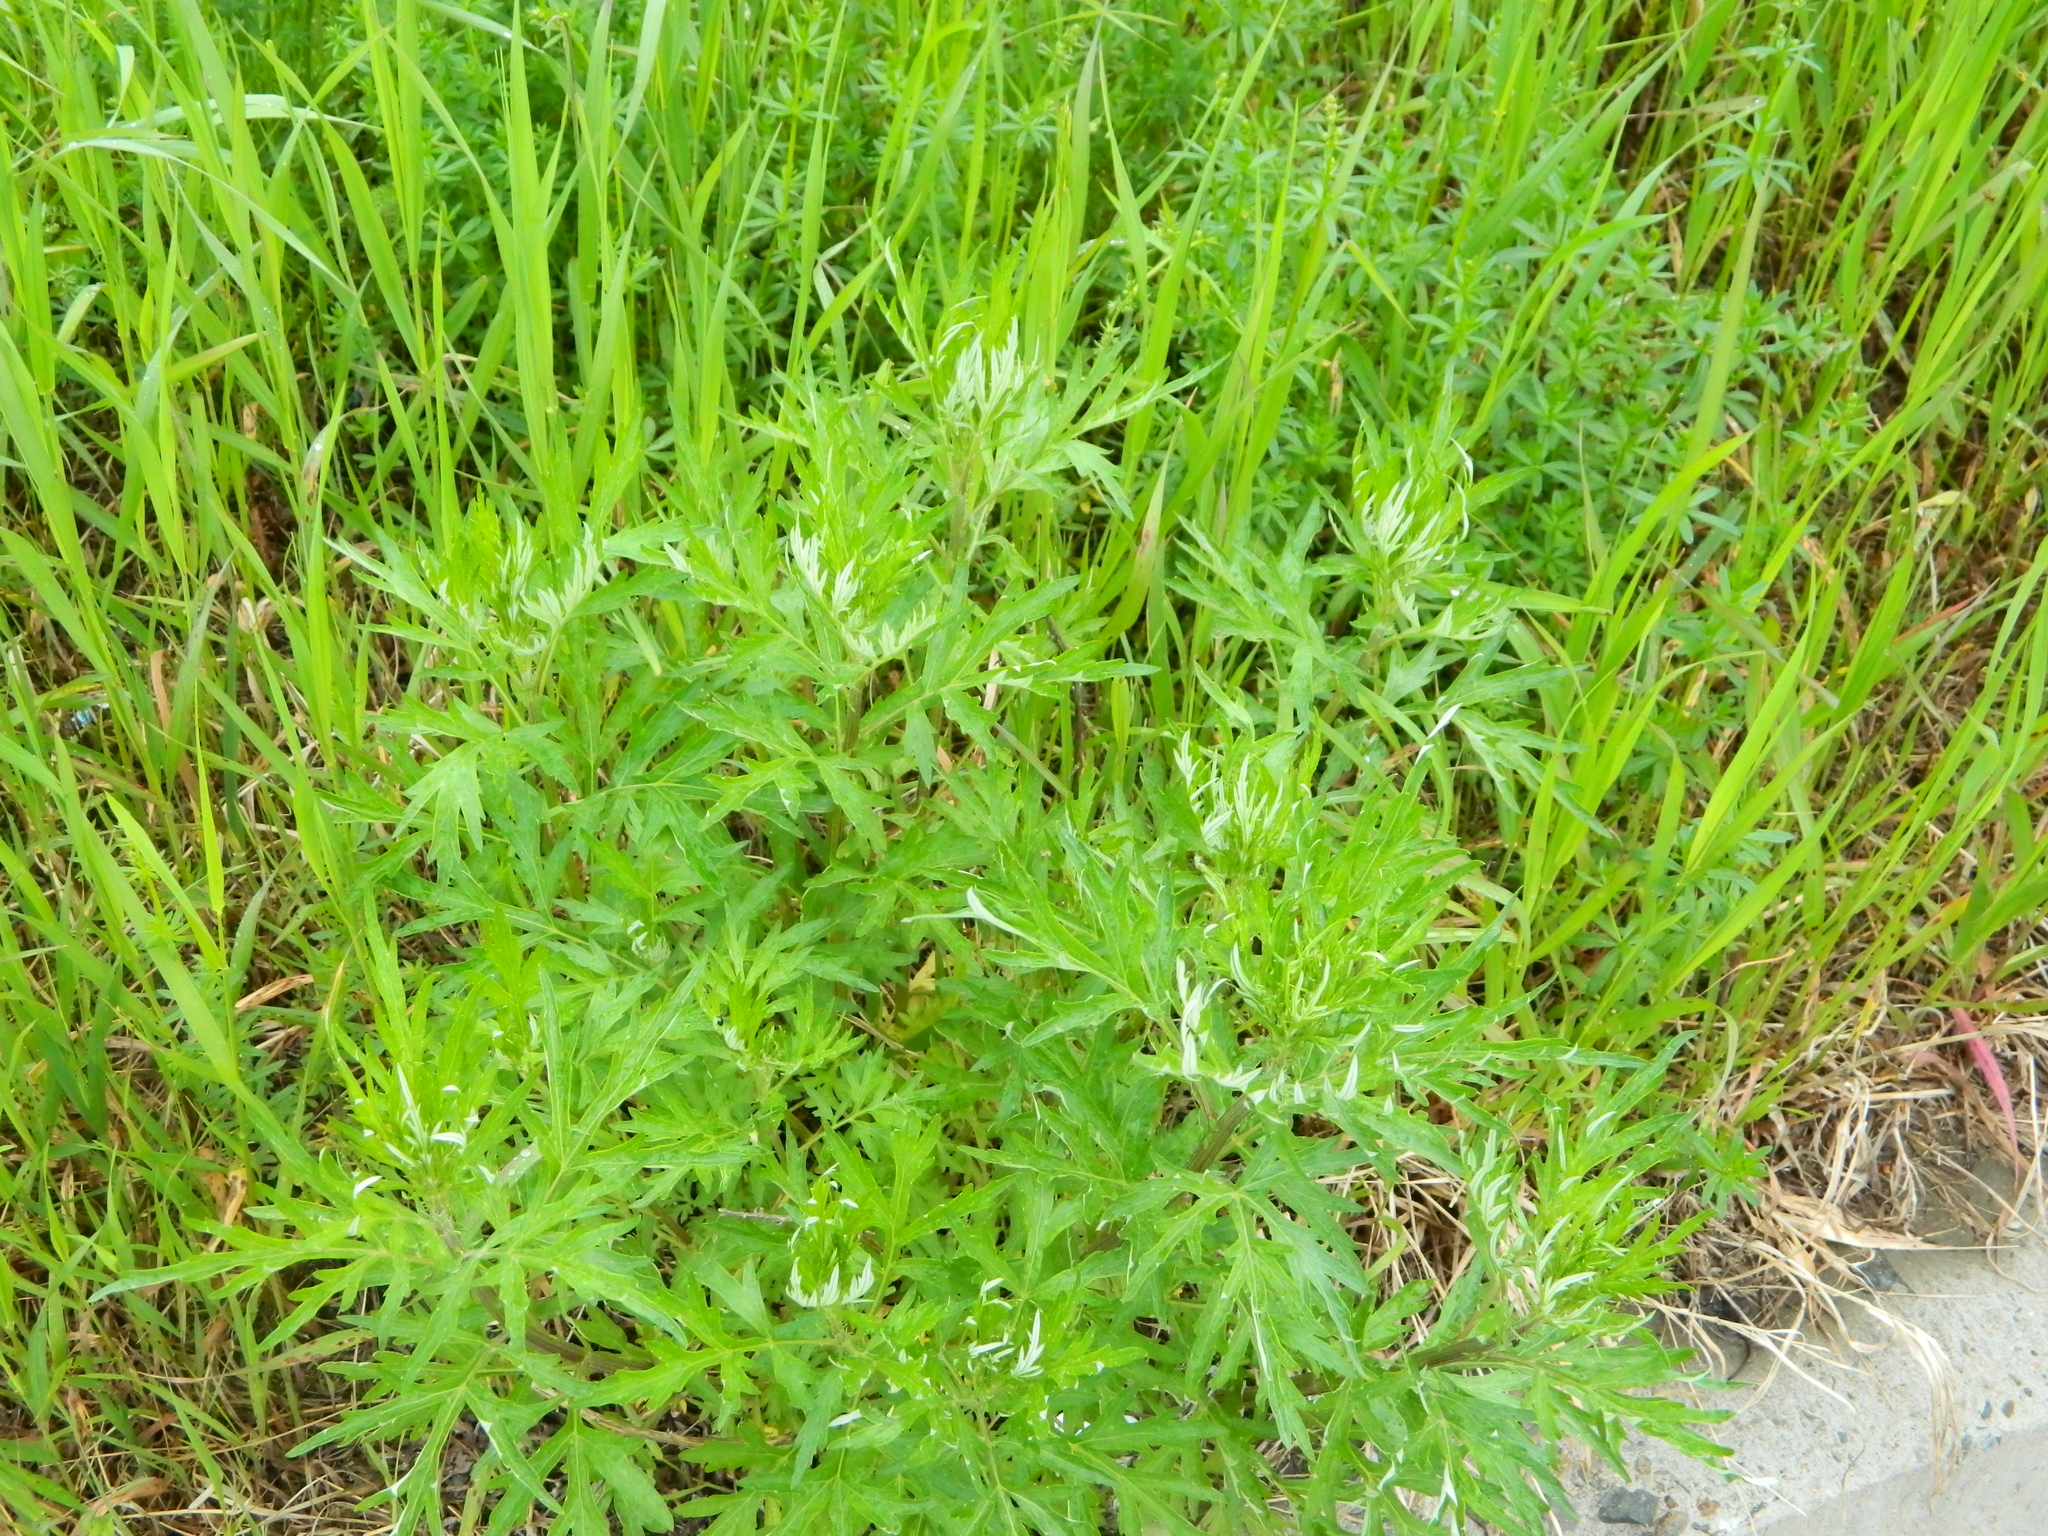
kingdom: Plantae
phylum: Tracheophyta
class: Magnoliopsida
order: Asterales
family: Asteraceae
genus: Artemisia
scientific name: Artemisia vulgaris
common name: Mugwort
